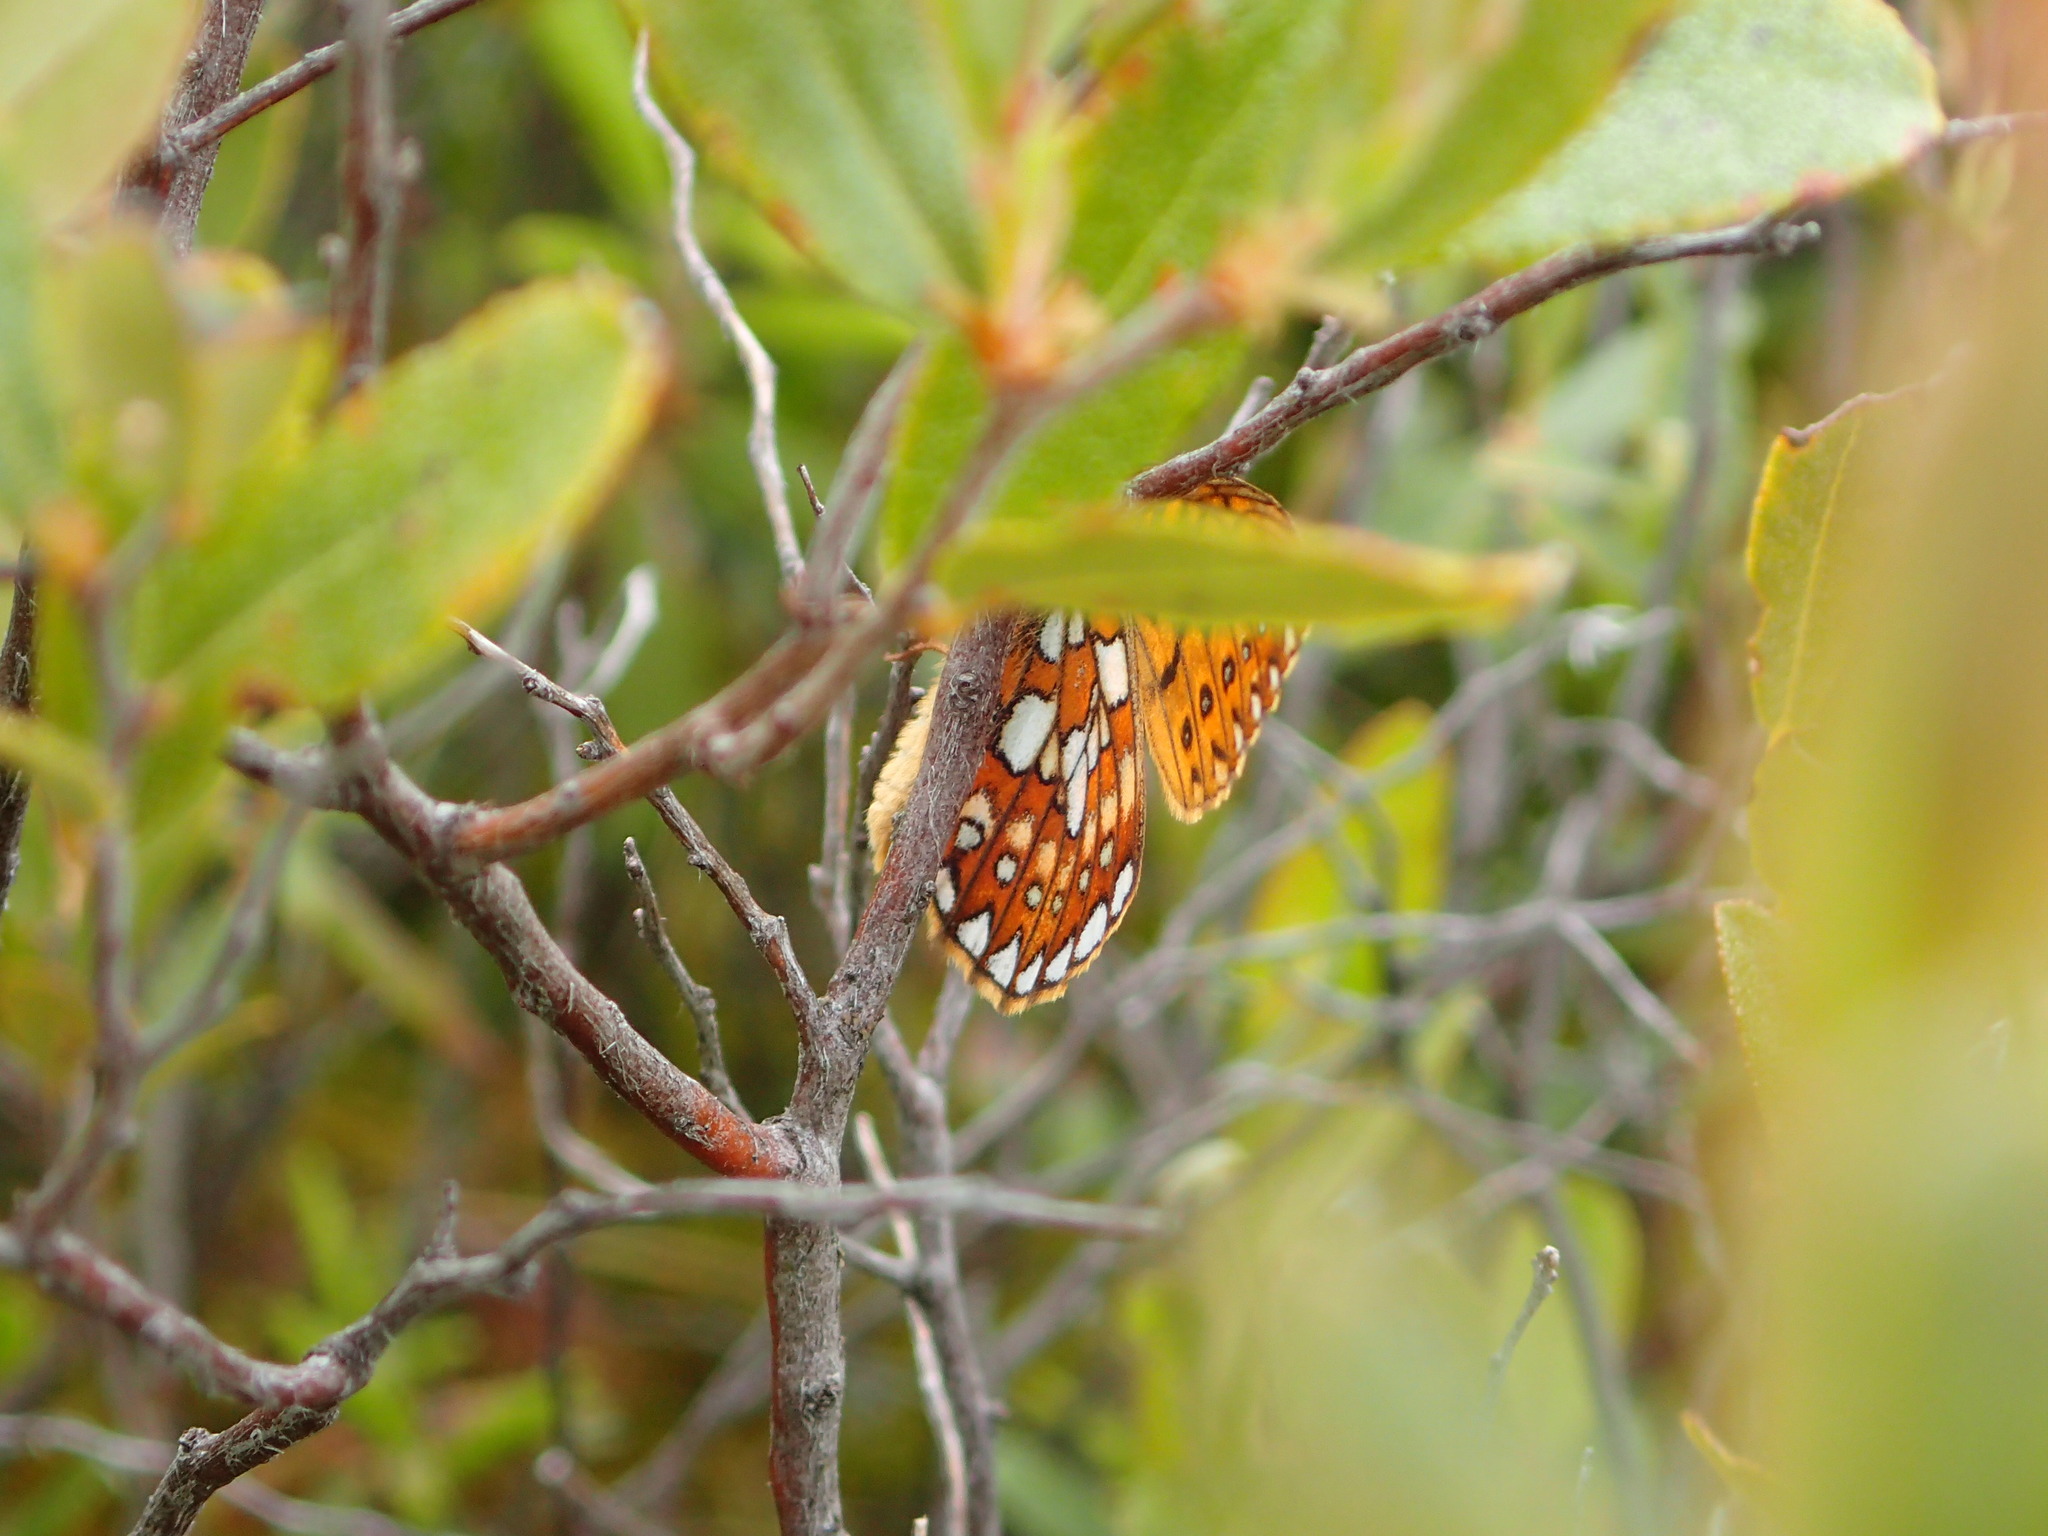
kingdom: Animalia
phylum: Arthropoda
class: Insecta
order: Lepidoptera
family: Nymphalidae
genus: Boloria
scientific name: Boloria eunomia
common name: Bog fritillary
